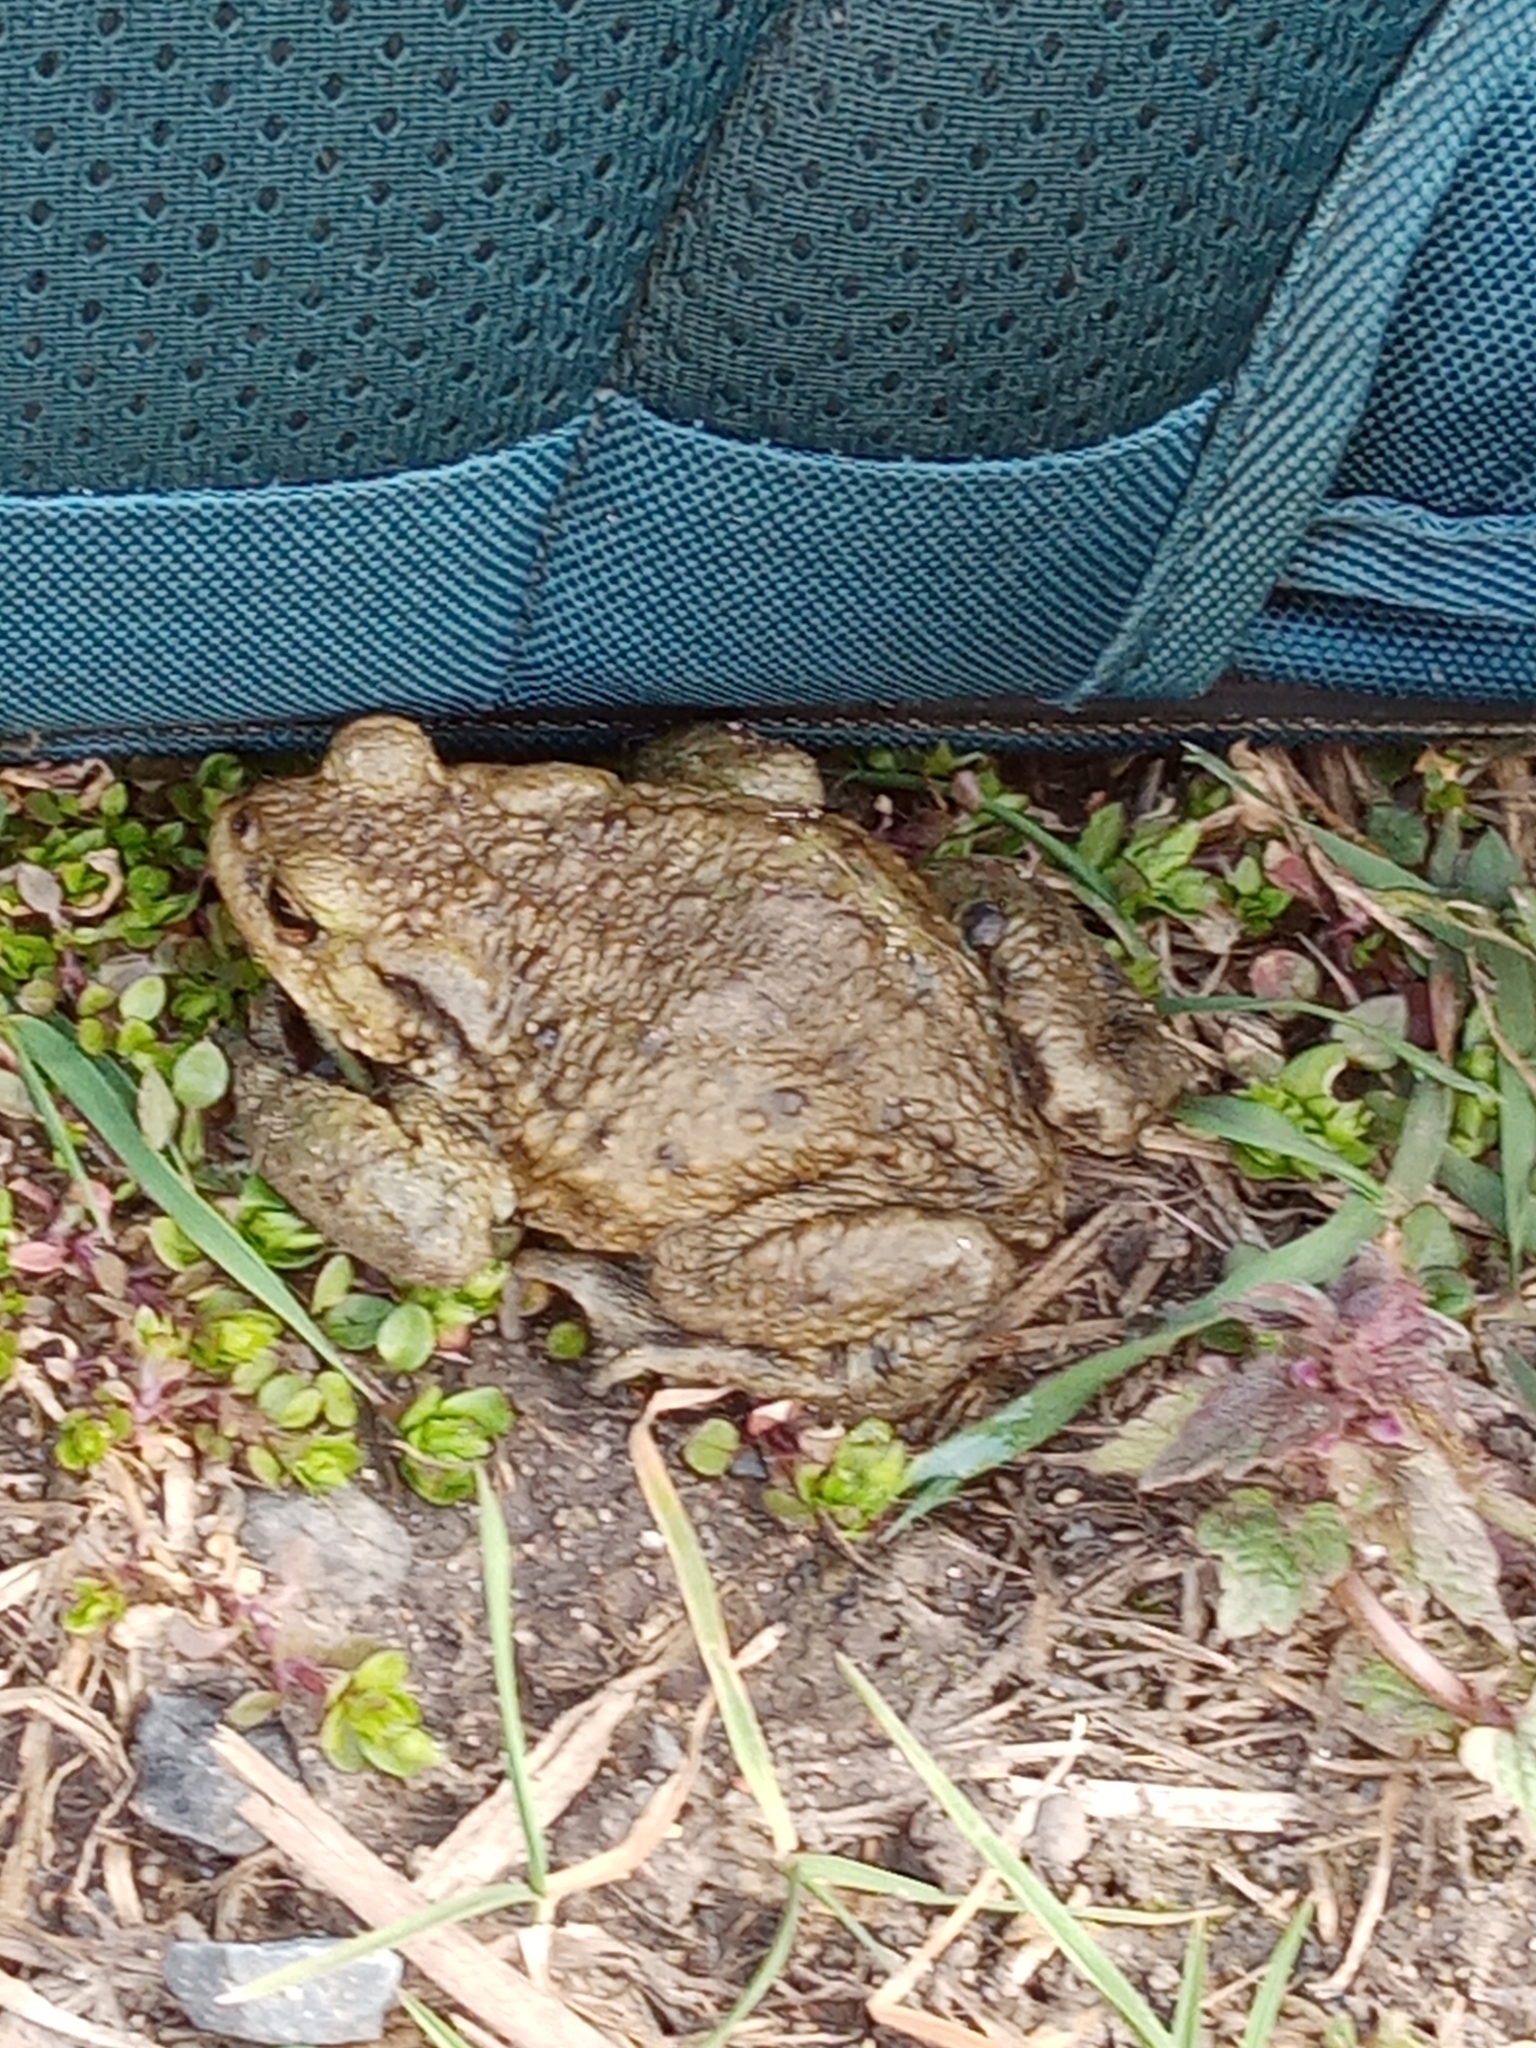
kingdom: Animalia
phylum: Chordata
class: Amphibia
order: Anura
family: Bufonidae
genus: Bufo
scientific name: Bufo bufo
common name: Common toad
